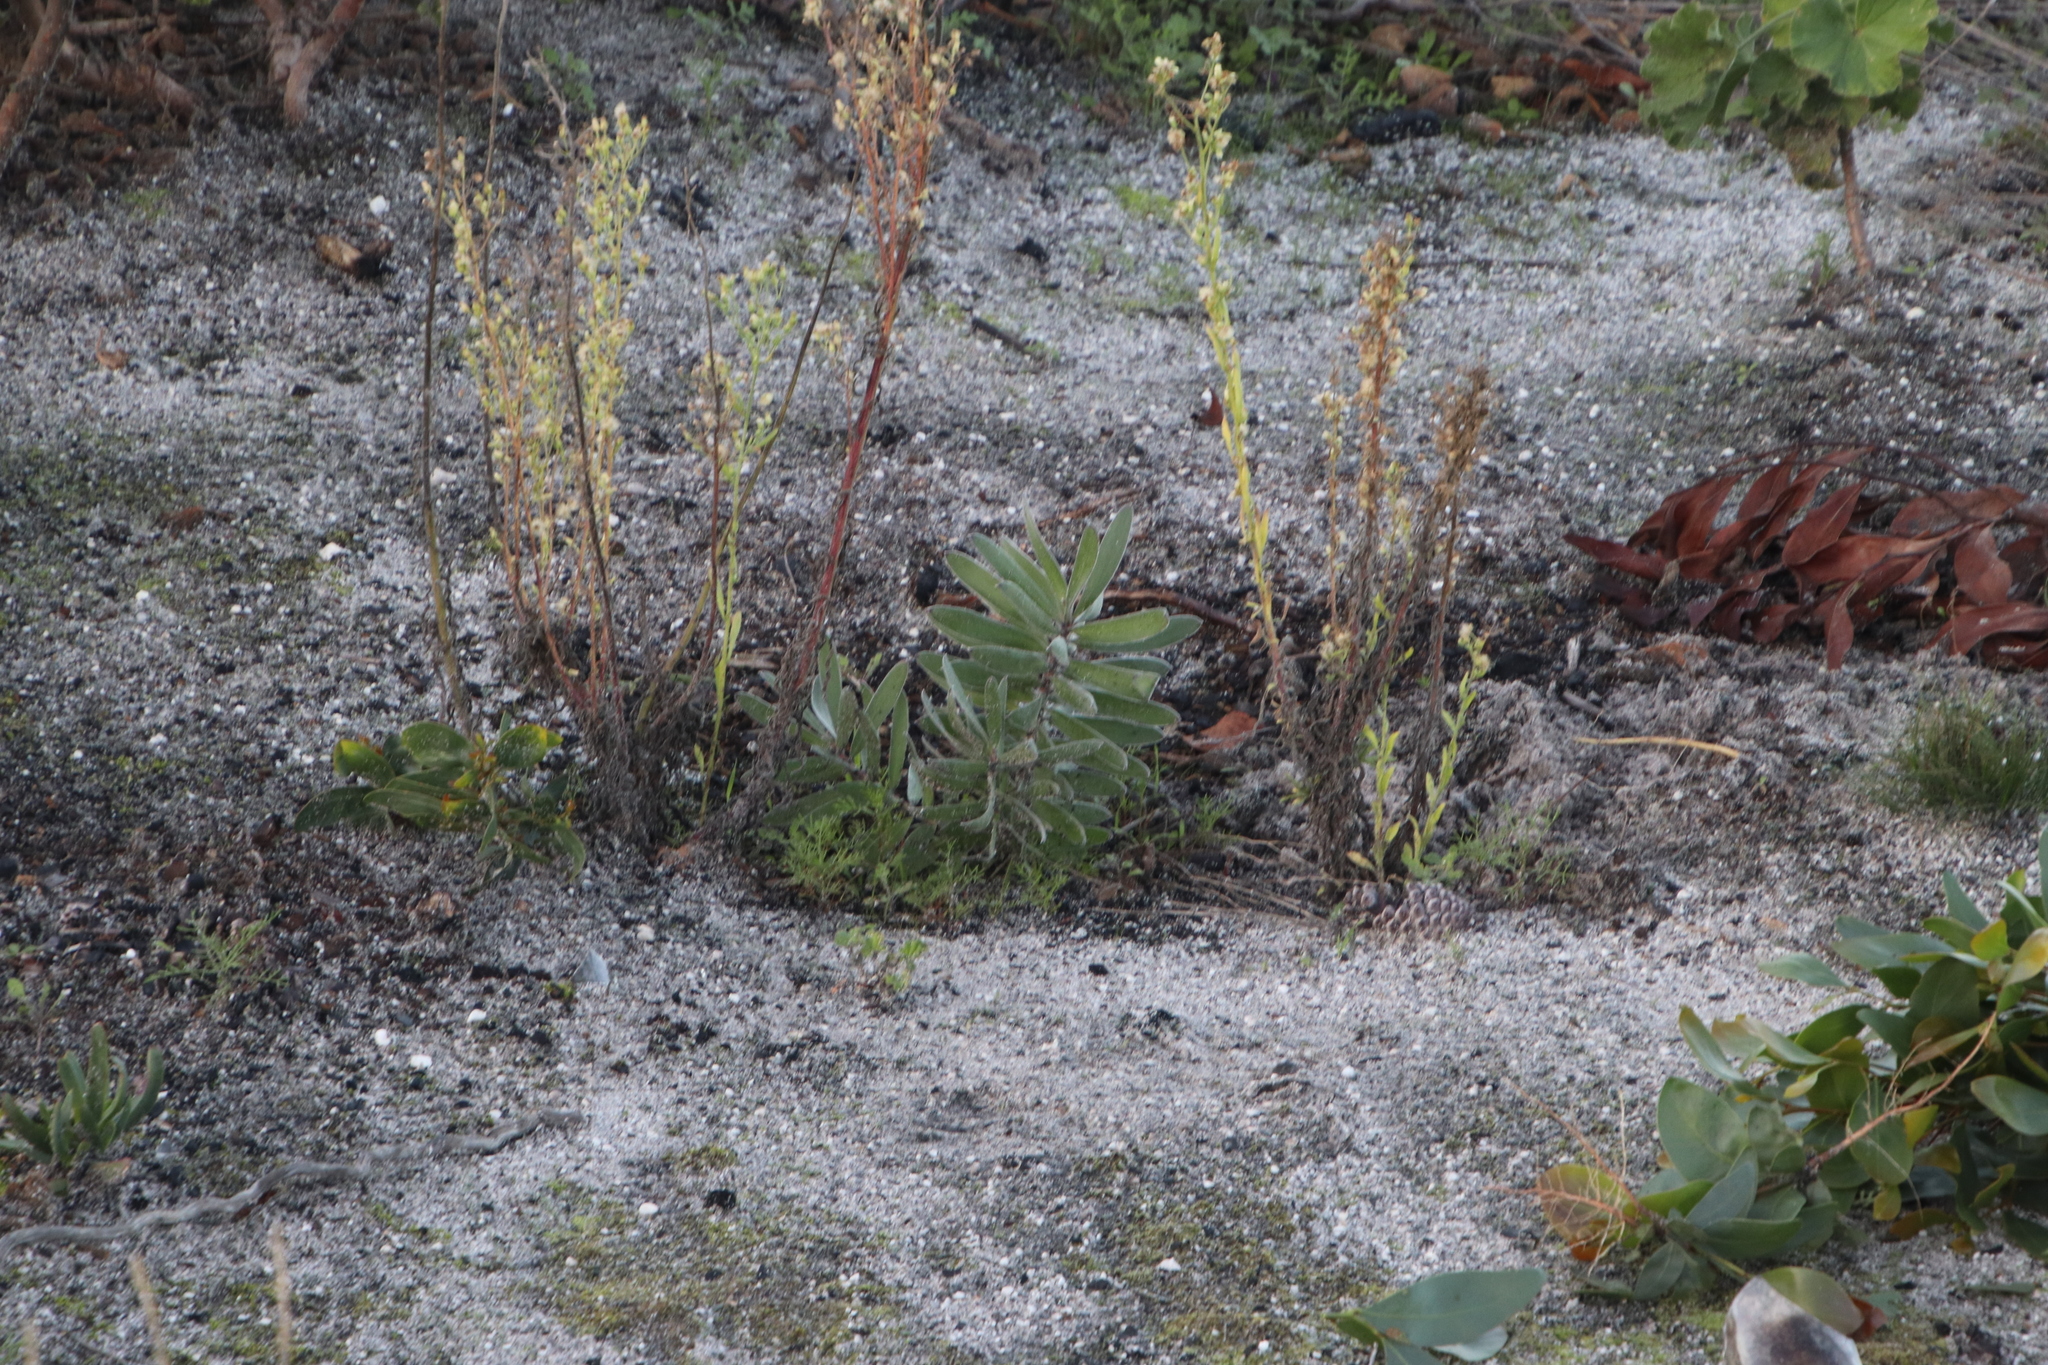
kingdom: Plantae
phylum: Tracheophyta
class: Magnoliopsida
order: Proteales
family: Proteaceae
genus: Leucadendron
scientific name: Leucadendron laureolum
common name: Golden sunshinebush
